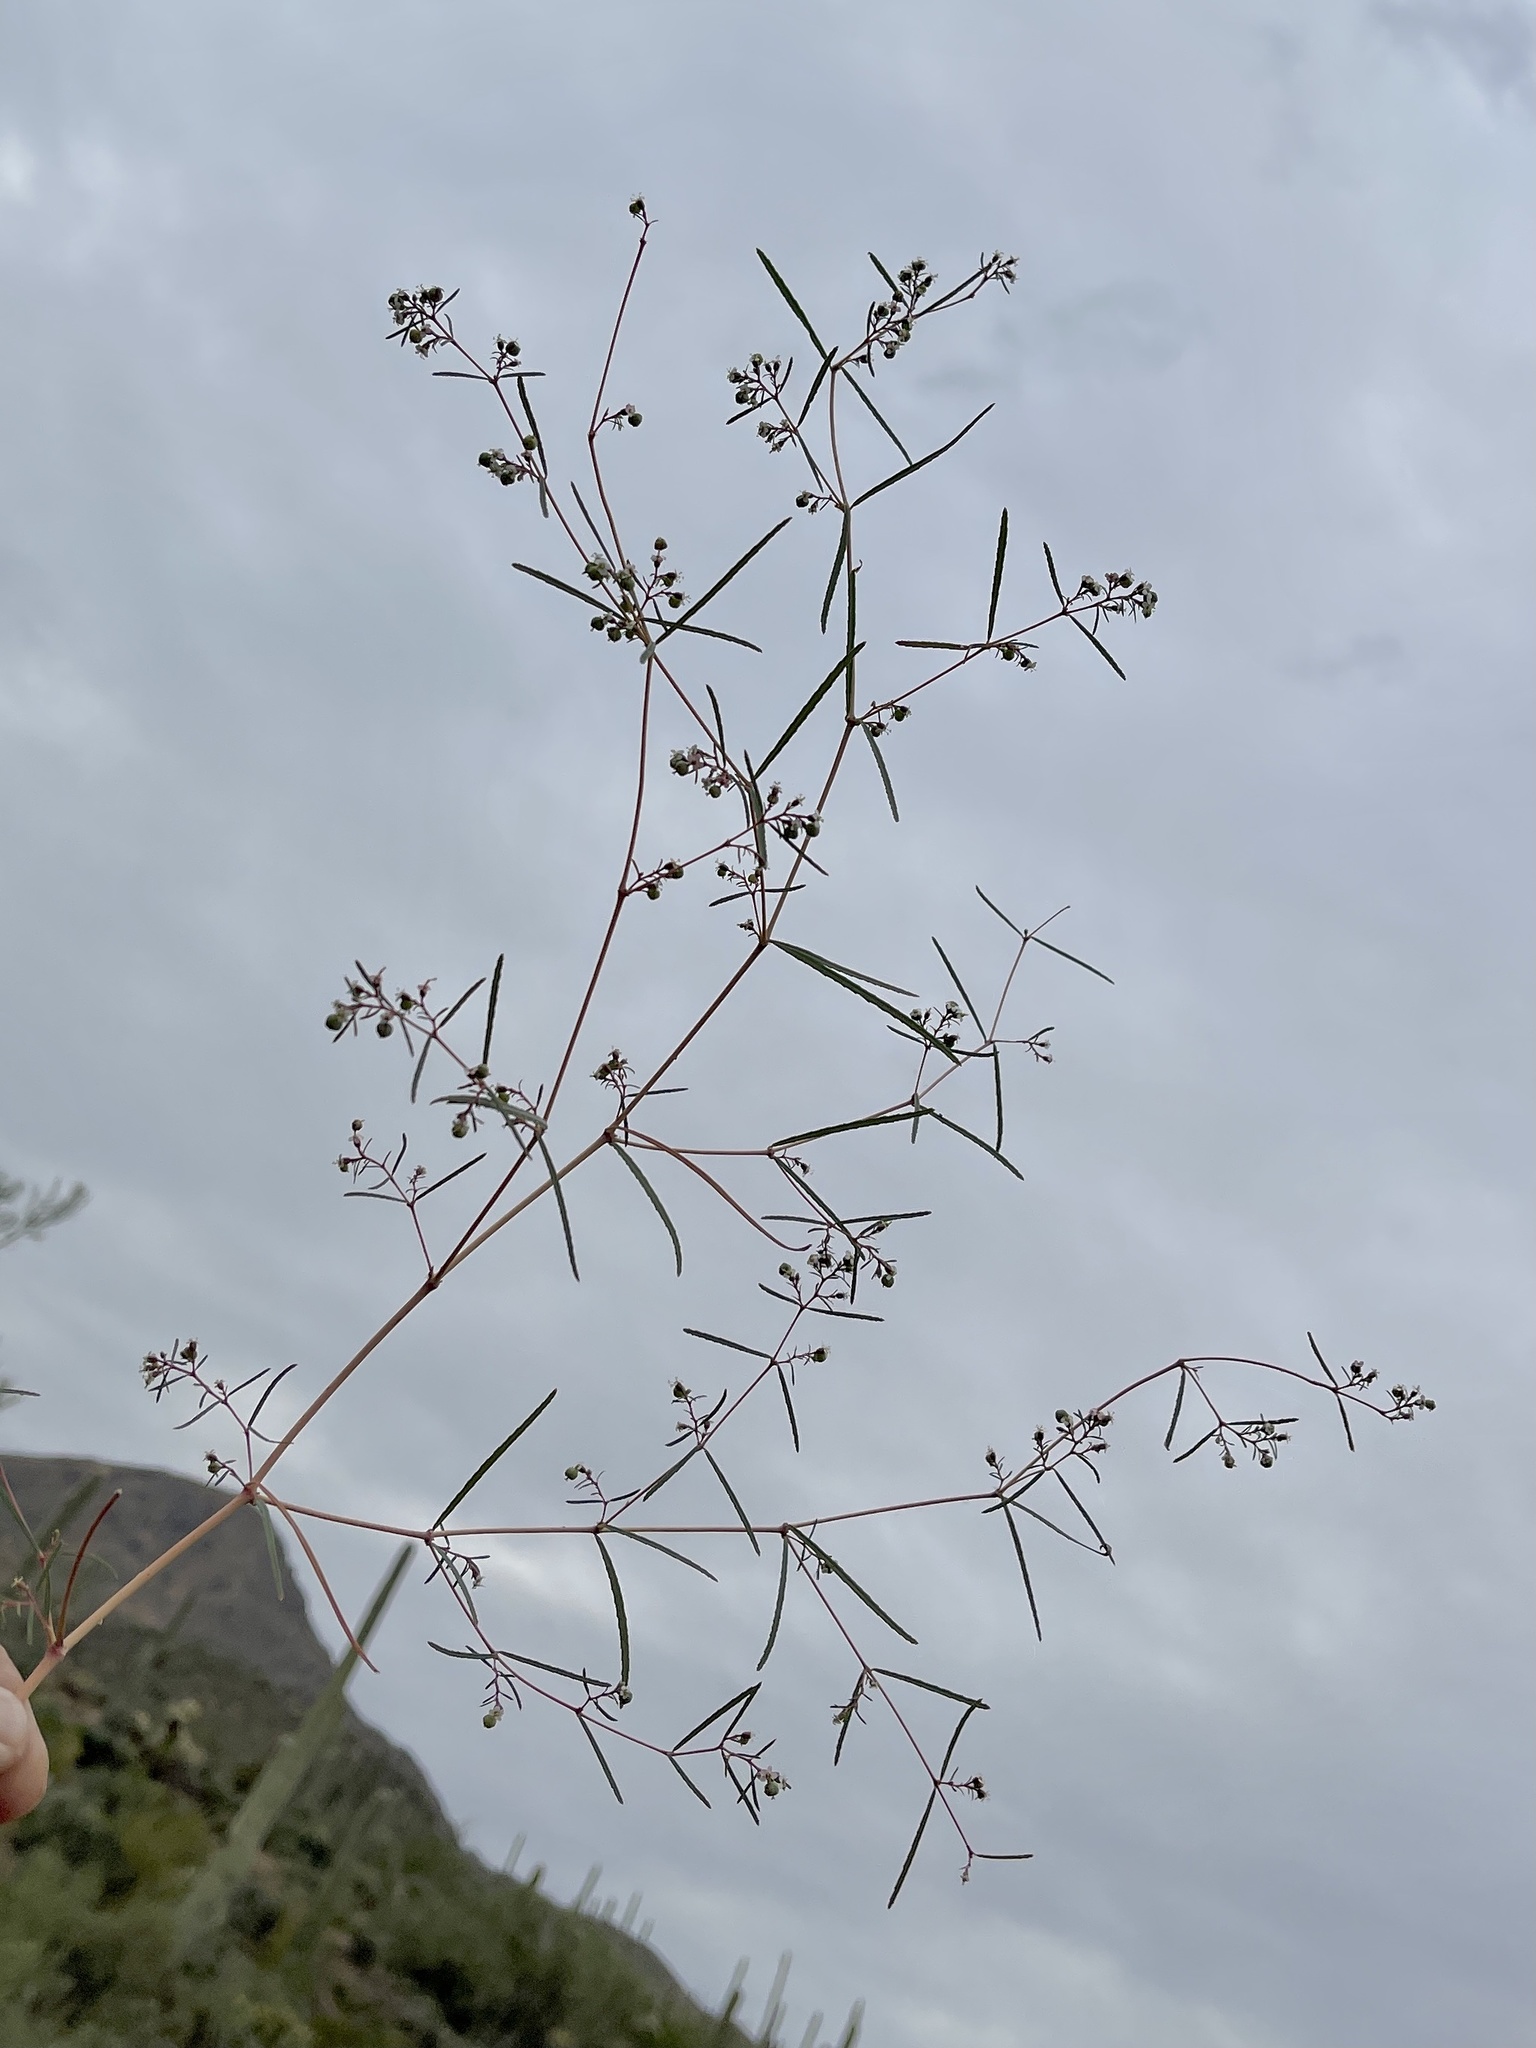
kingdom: Plantae
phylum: Tracheophyta
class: Magnoliopsida
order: Malpighiales
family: Euphorbiaceae
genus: Euphorbia
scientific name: Euphorbia florida
